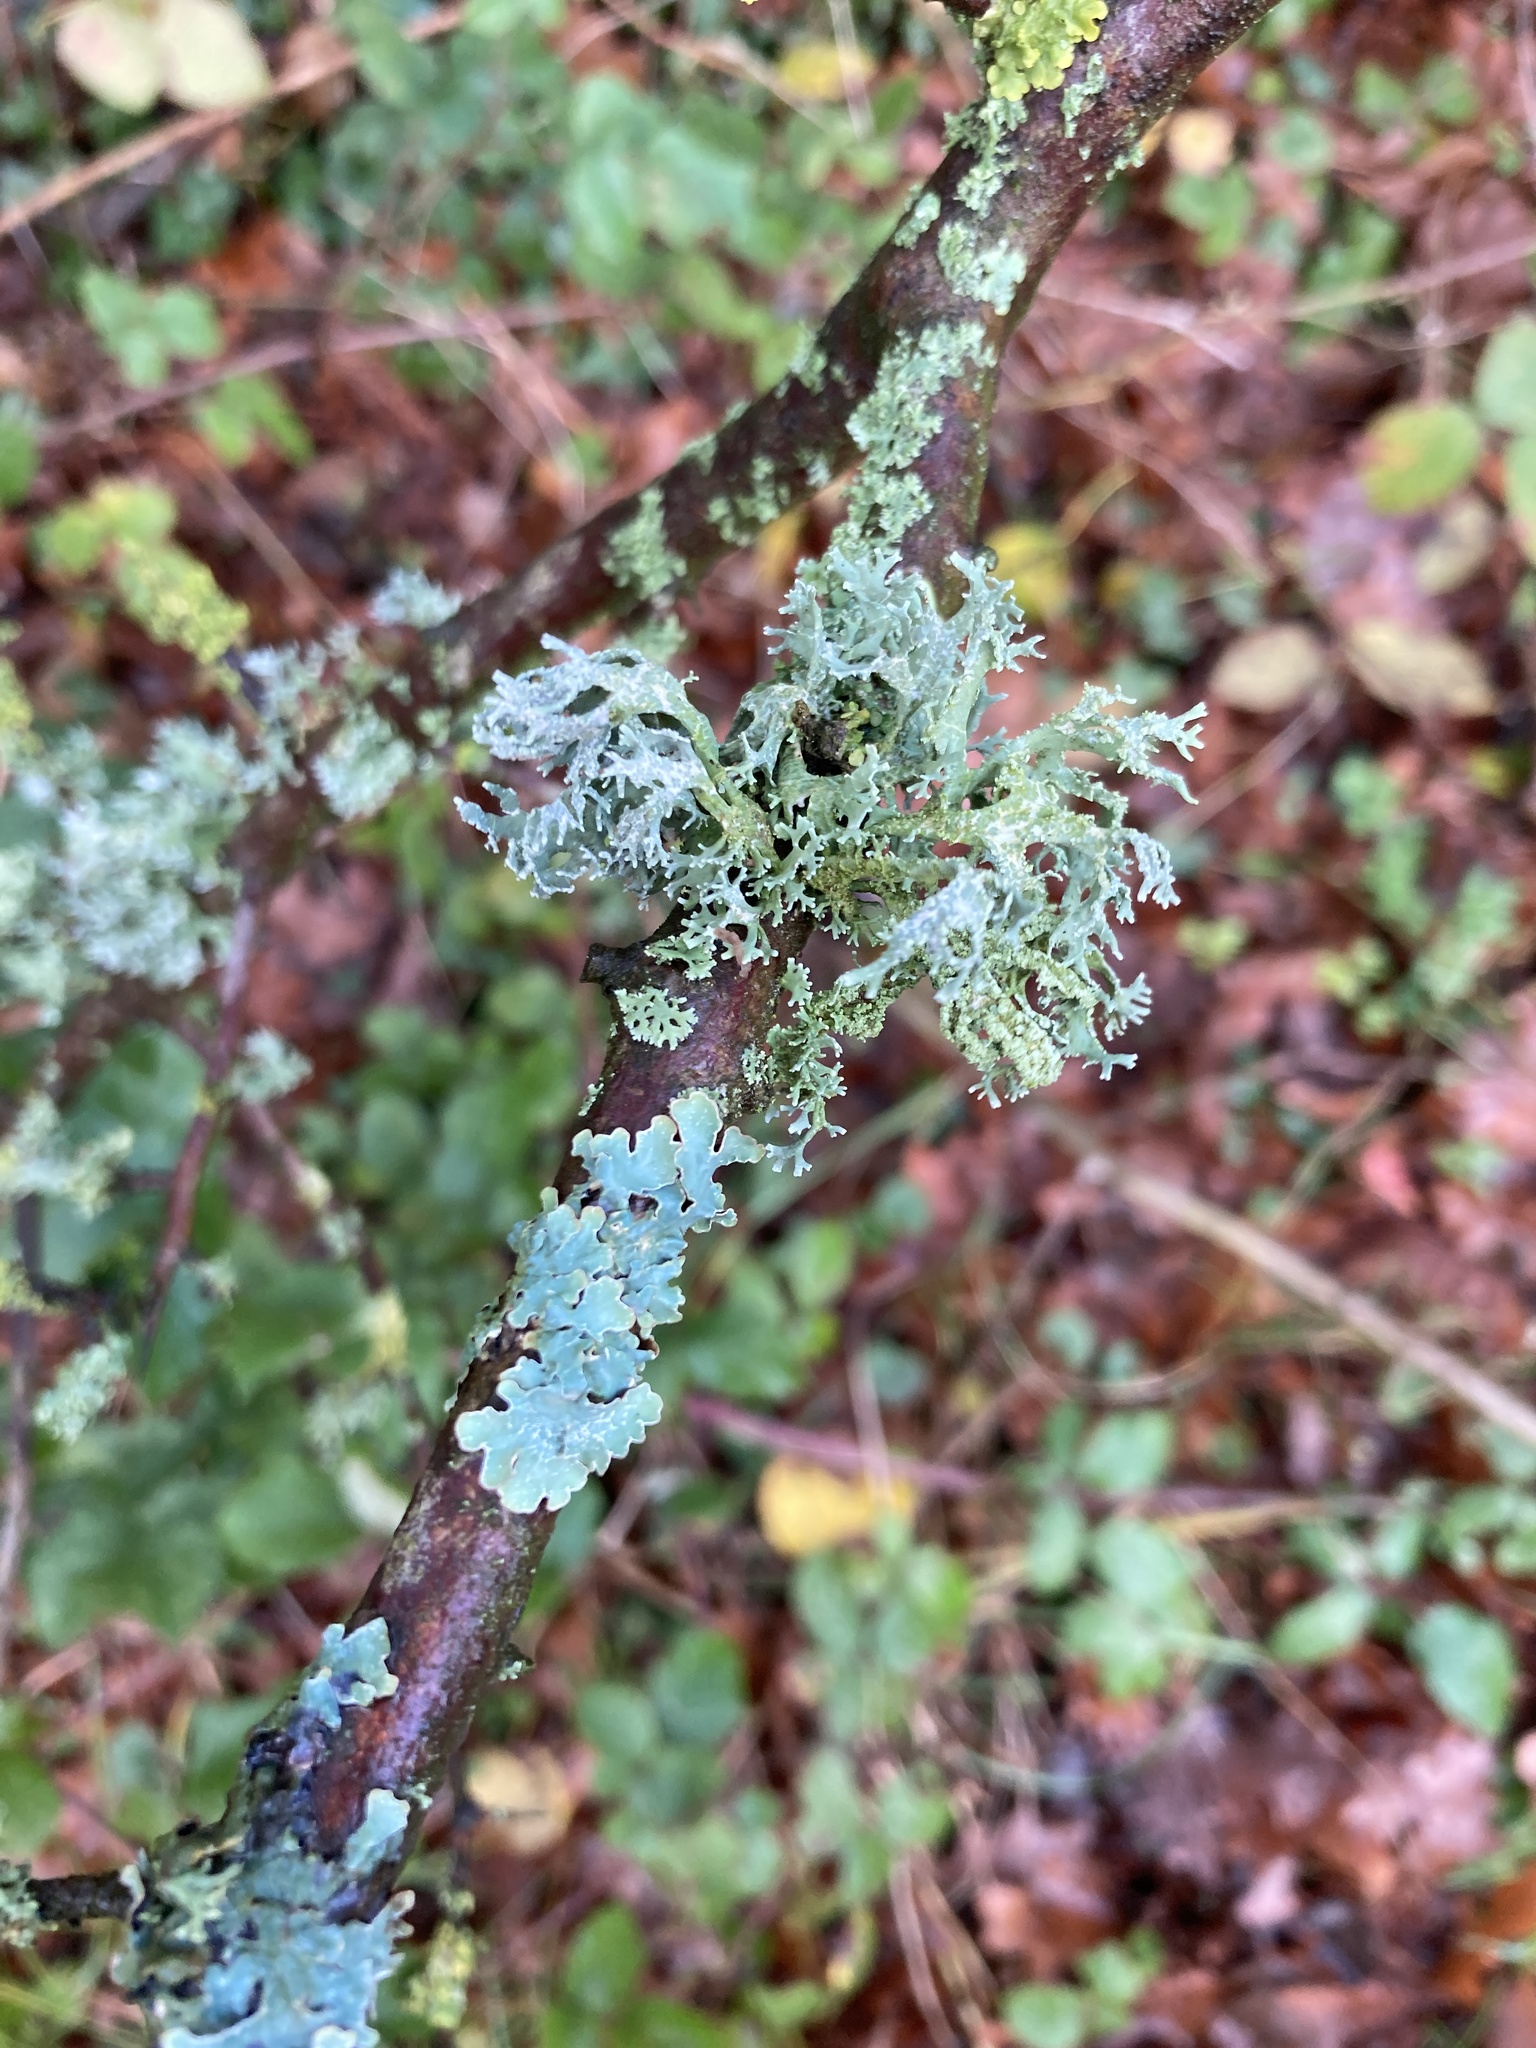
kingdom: Fungi
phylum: Ascomycota
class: Lecanoromycetes
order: Lecanorales
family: Parmeliaceae
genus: Evernia
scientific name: Evernia prunastri
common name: Oak moss
